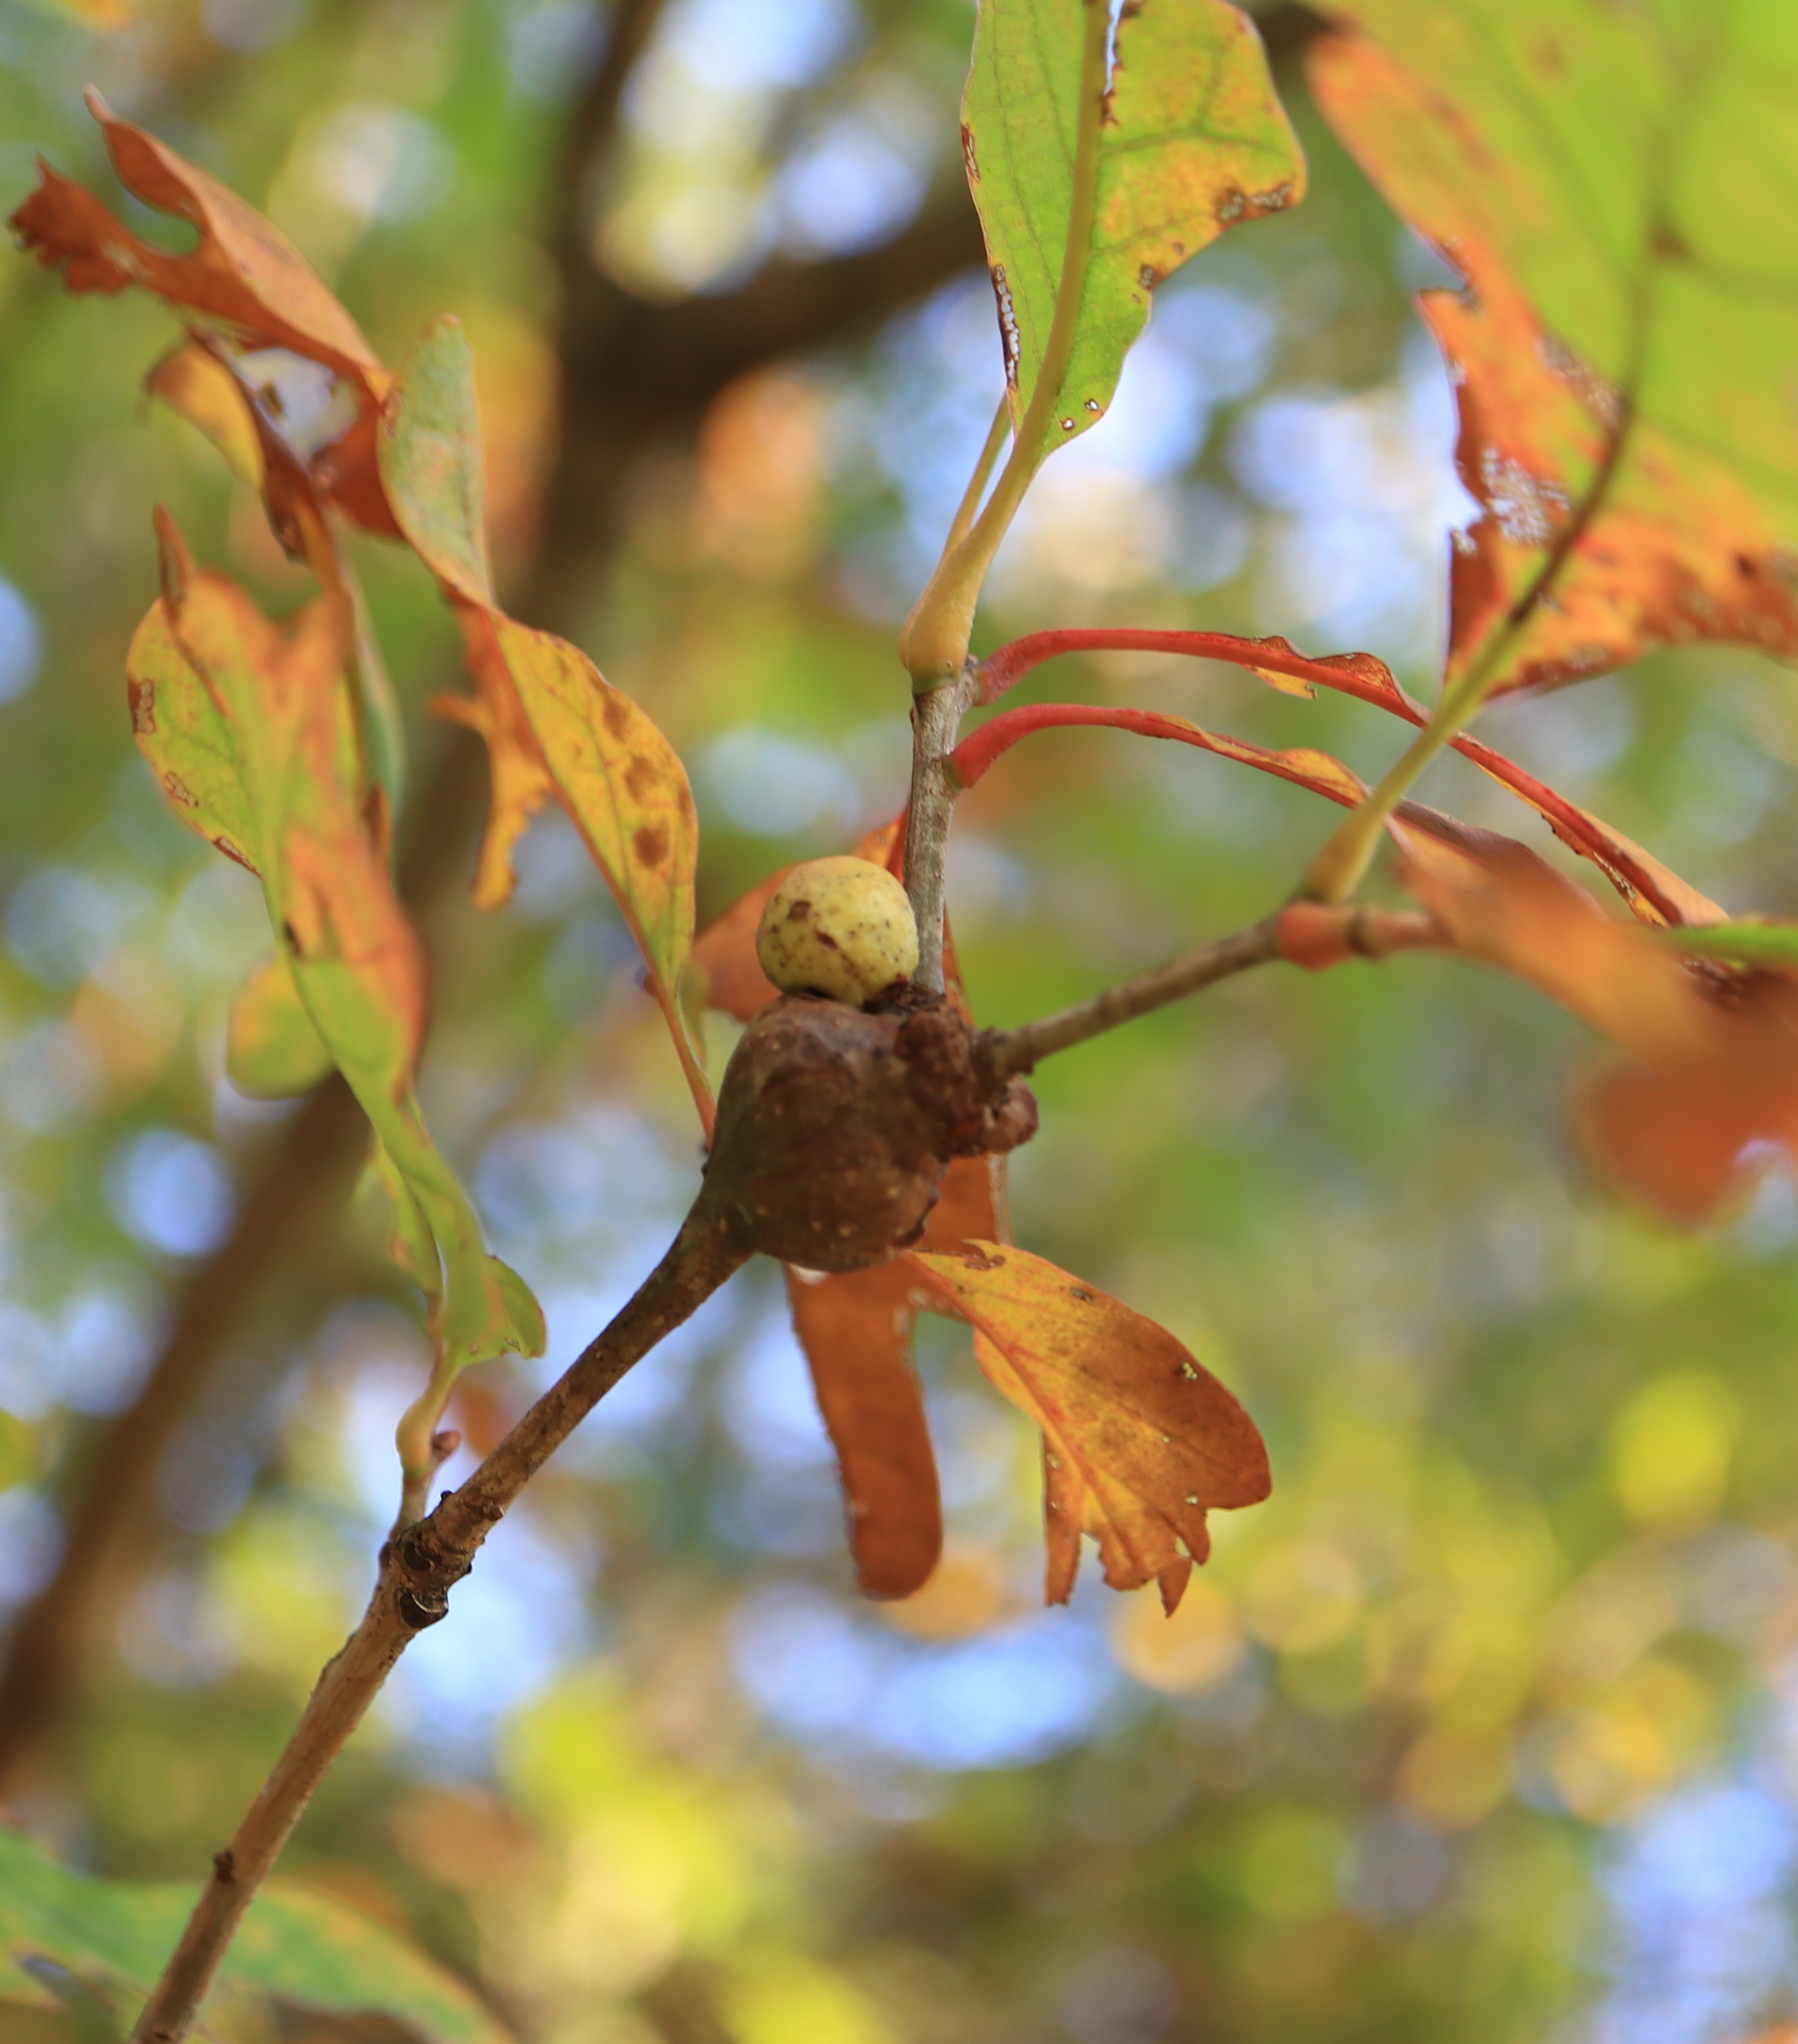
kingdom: Animalia
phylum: Arthropoda
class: Insecta
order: Hymenoptera
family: Cynipidae
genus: Callirhytis
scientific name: Callirhytis clavula
